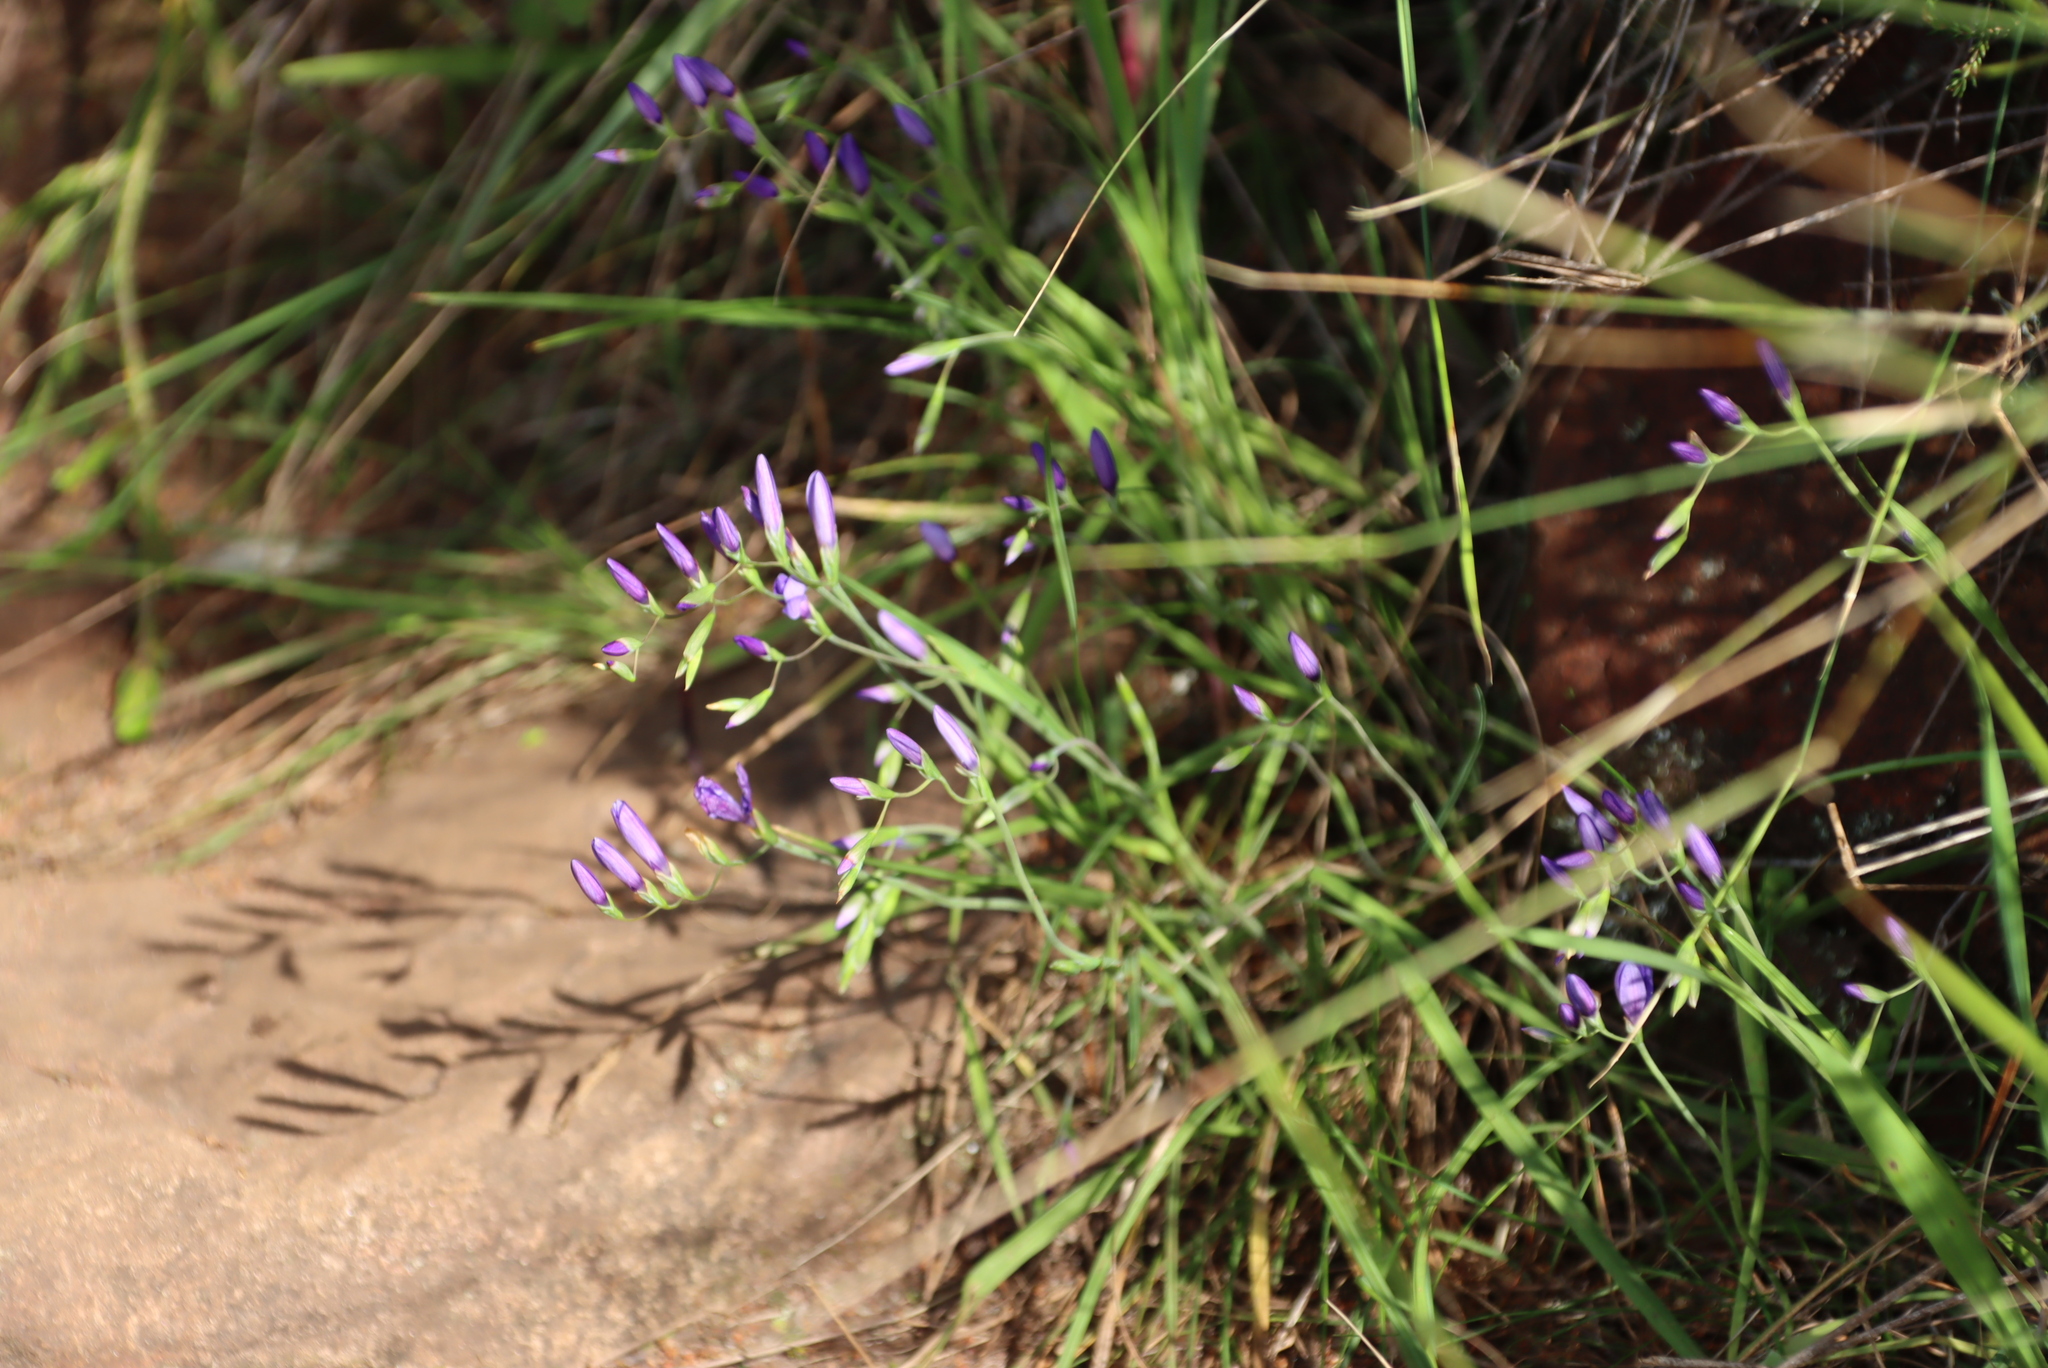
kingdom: Plantae
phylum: Tracheophyta
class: Liliopsida
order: Asparagales
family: Iridaceae
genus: Geissorhiza
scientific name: Geissorhiza aspera
